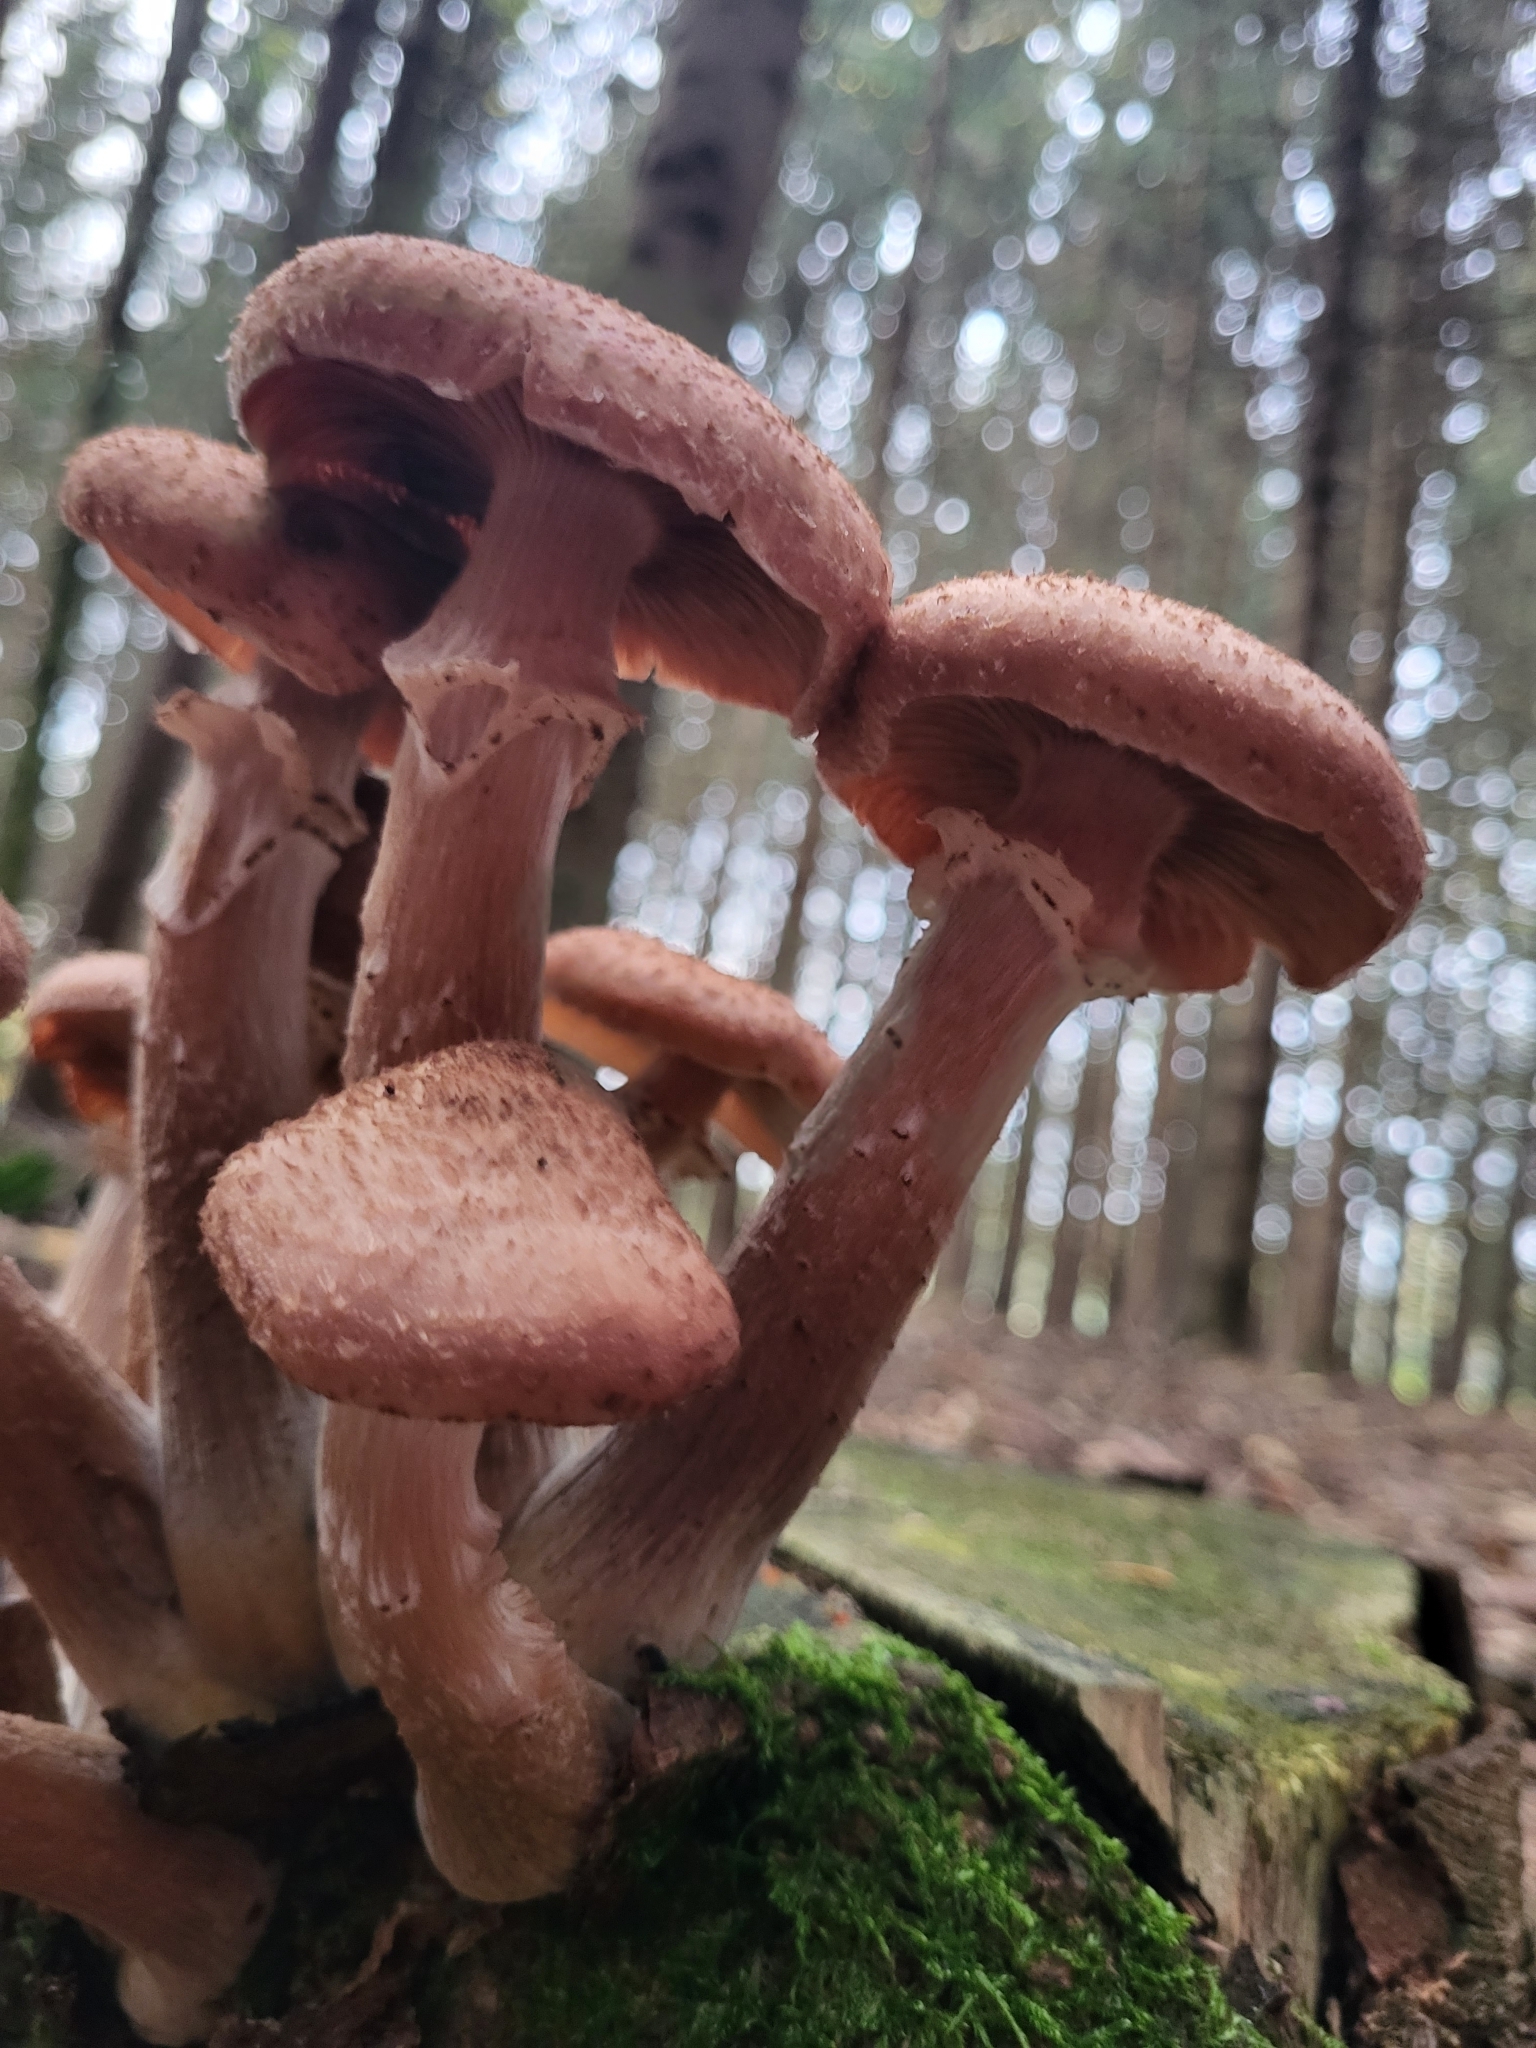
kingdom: Fungi
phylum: Basidiomycota
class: Agaricomycetes
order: Agaricales
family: Physalacriaceae
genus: Armillaria
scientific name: Armillaria ostoyae
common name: Dark honey fungus
